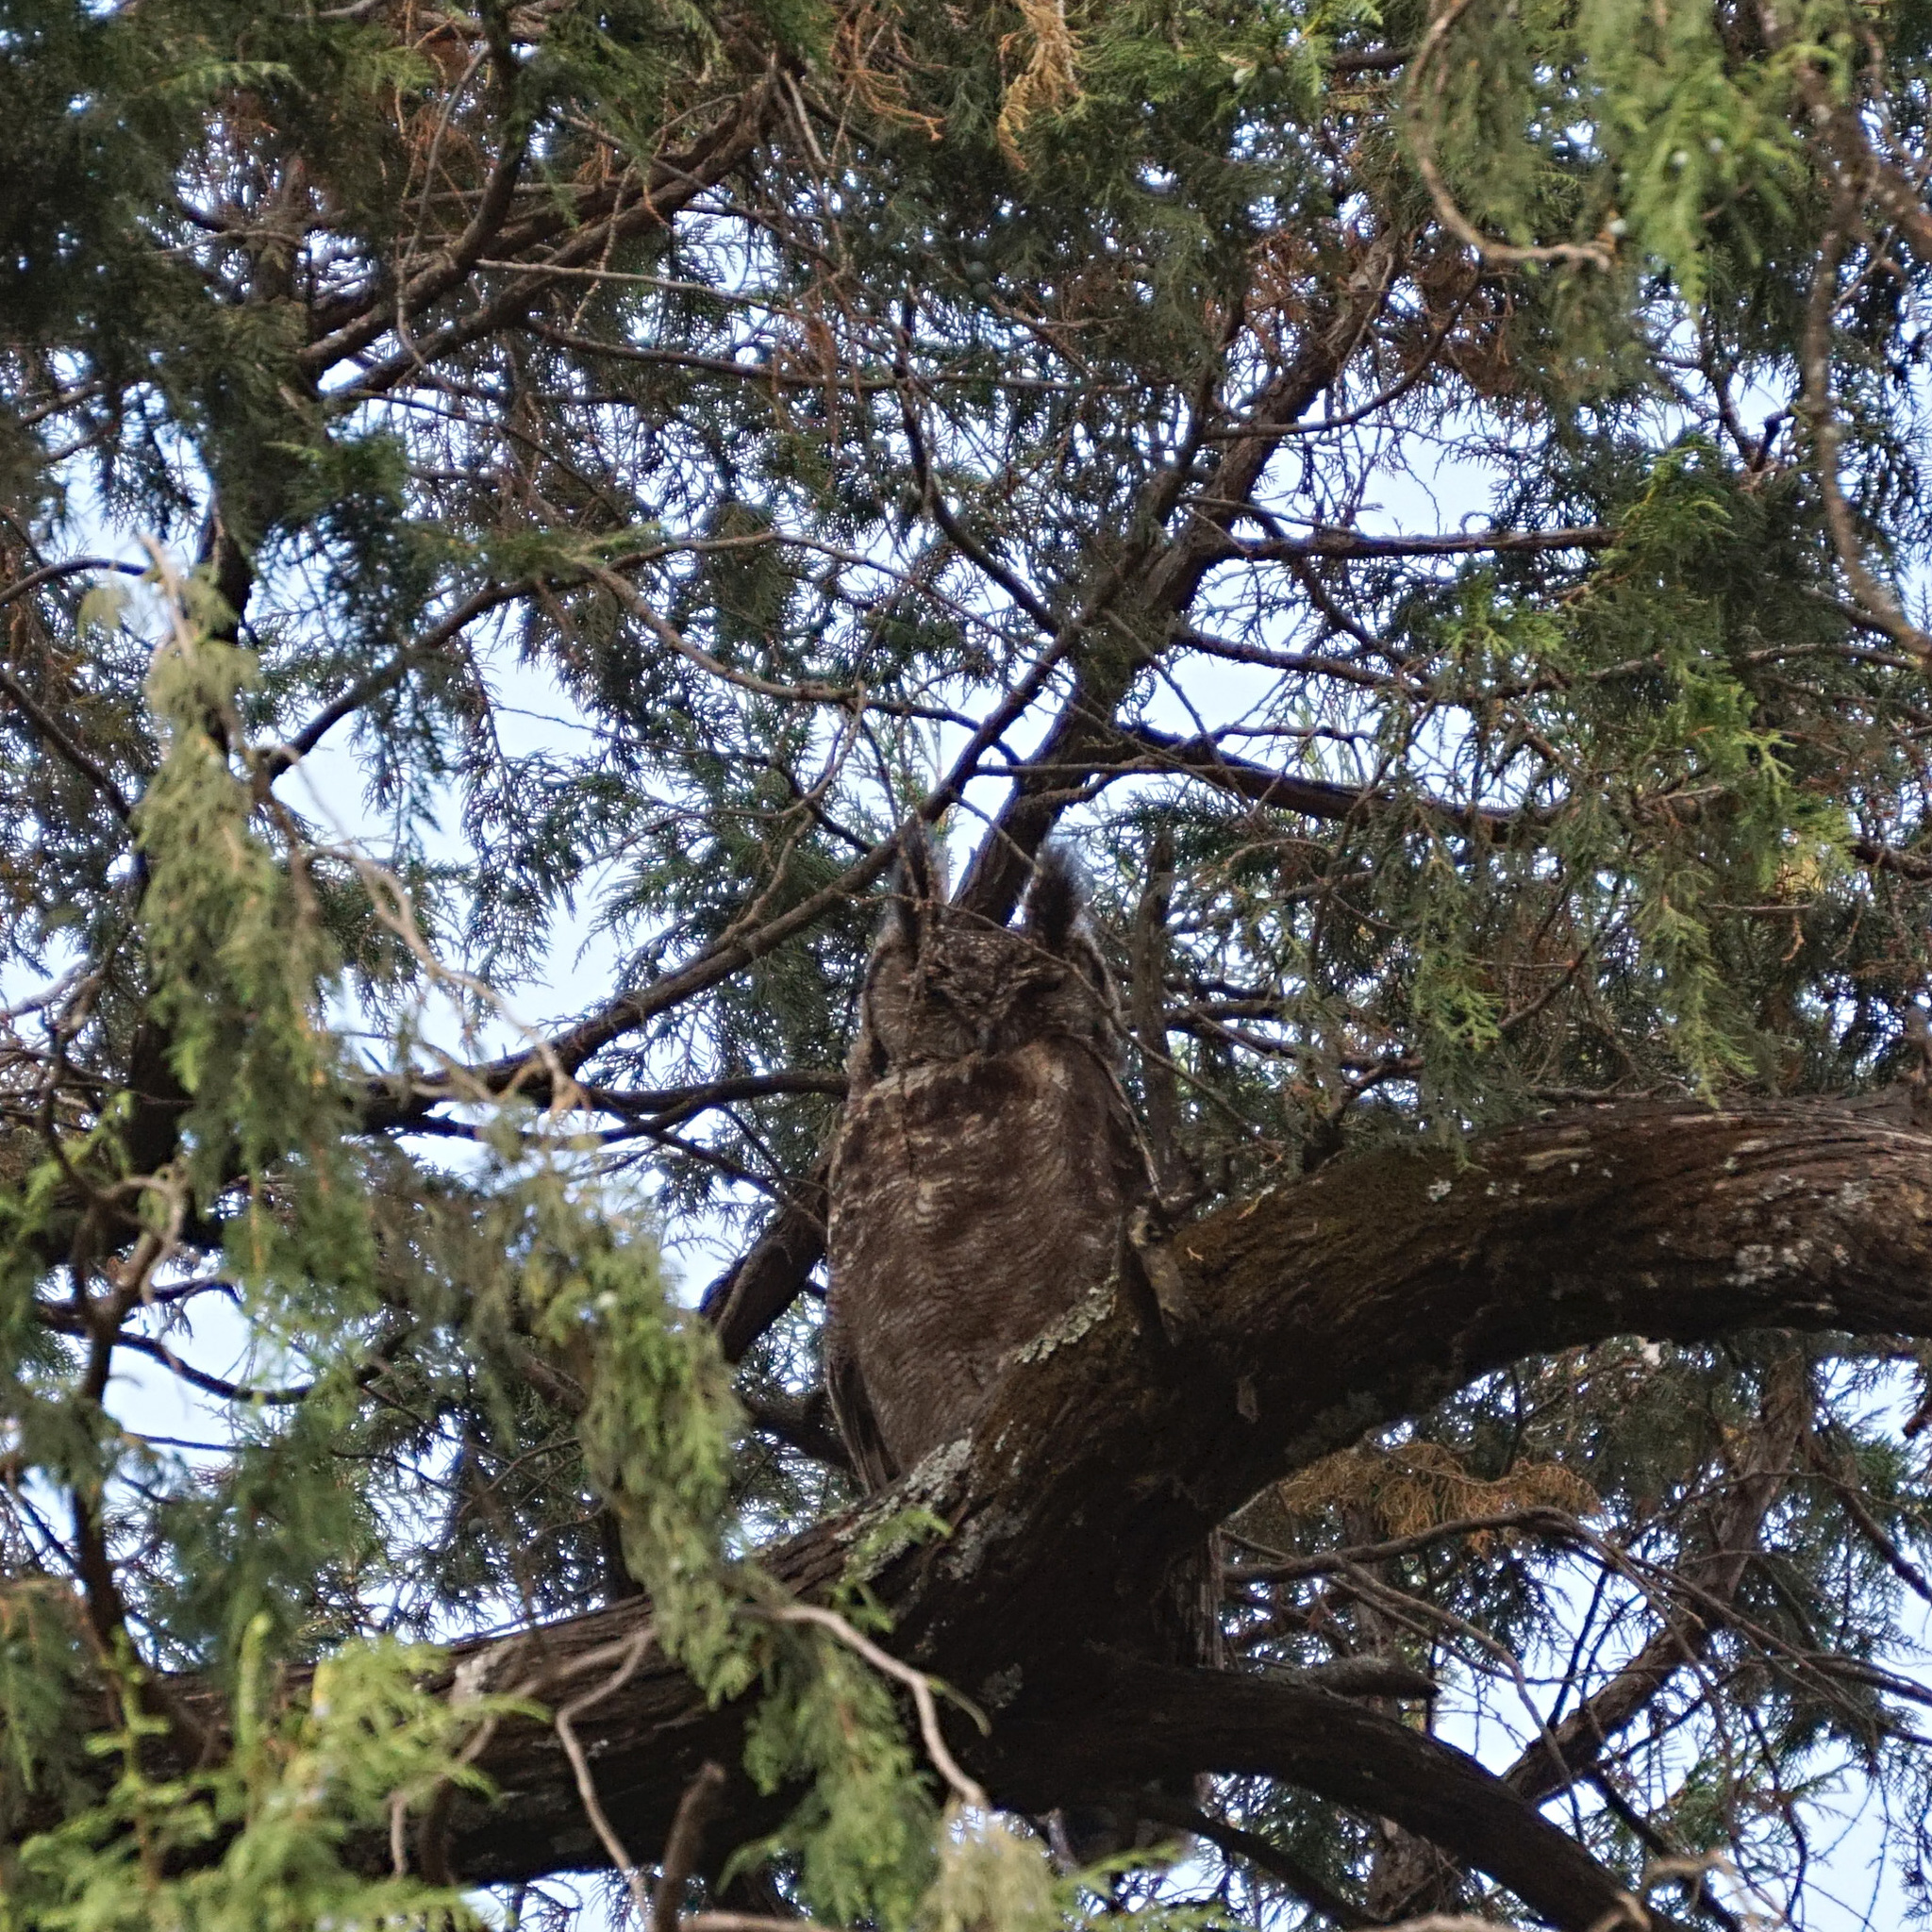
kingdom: Animalia
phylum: Chordata
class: Aves
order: Strigiformes
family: Strigidae
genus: Bubo
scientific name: Bubo cinerascens
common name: Greyish eagle-owl
